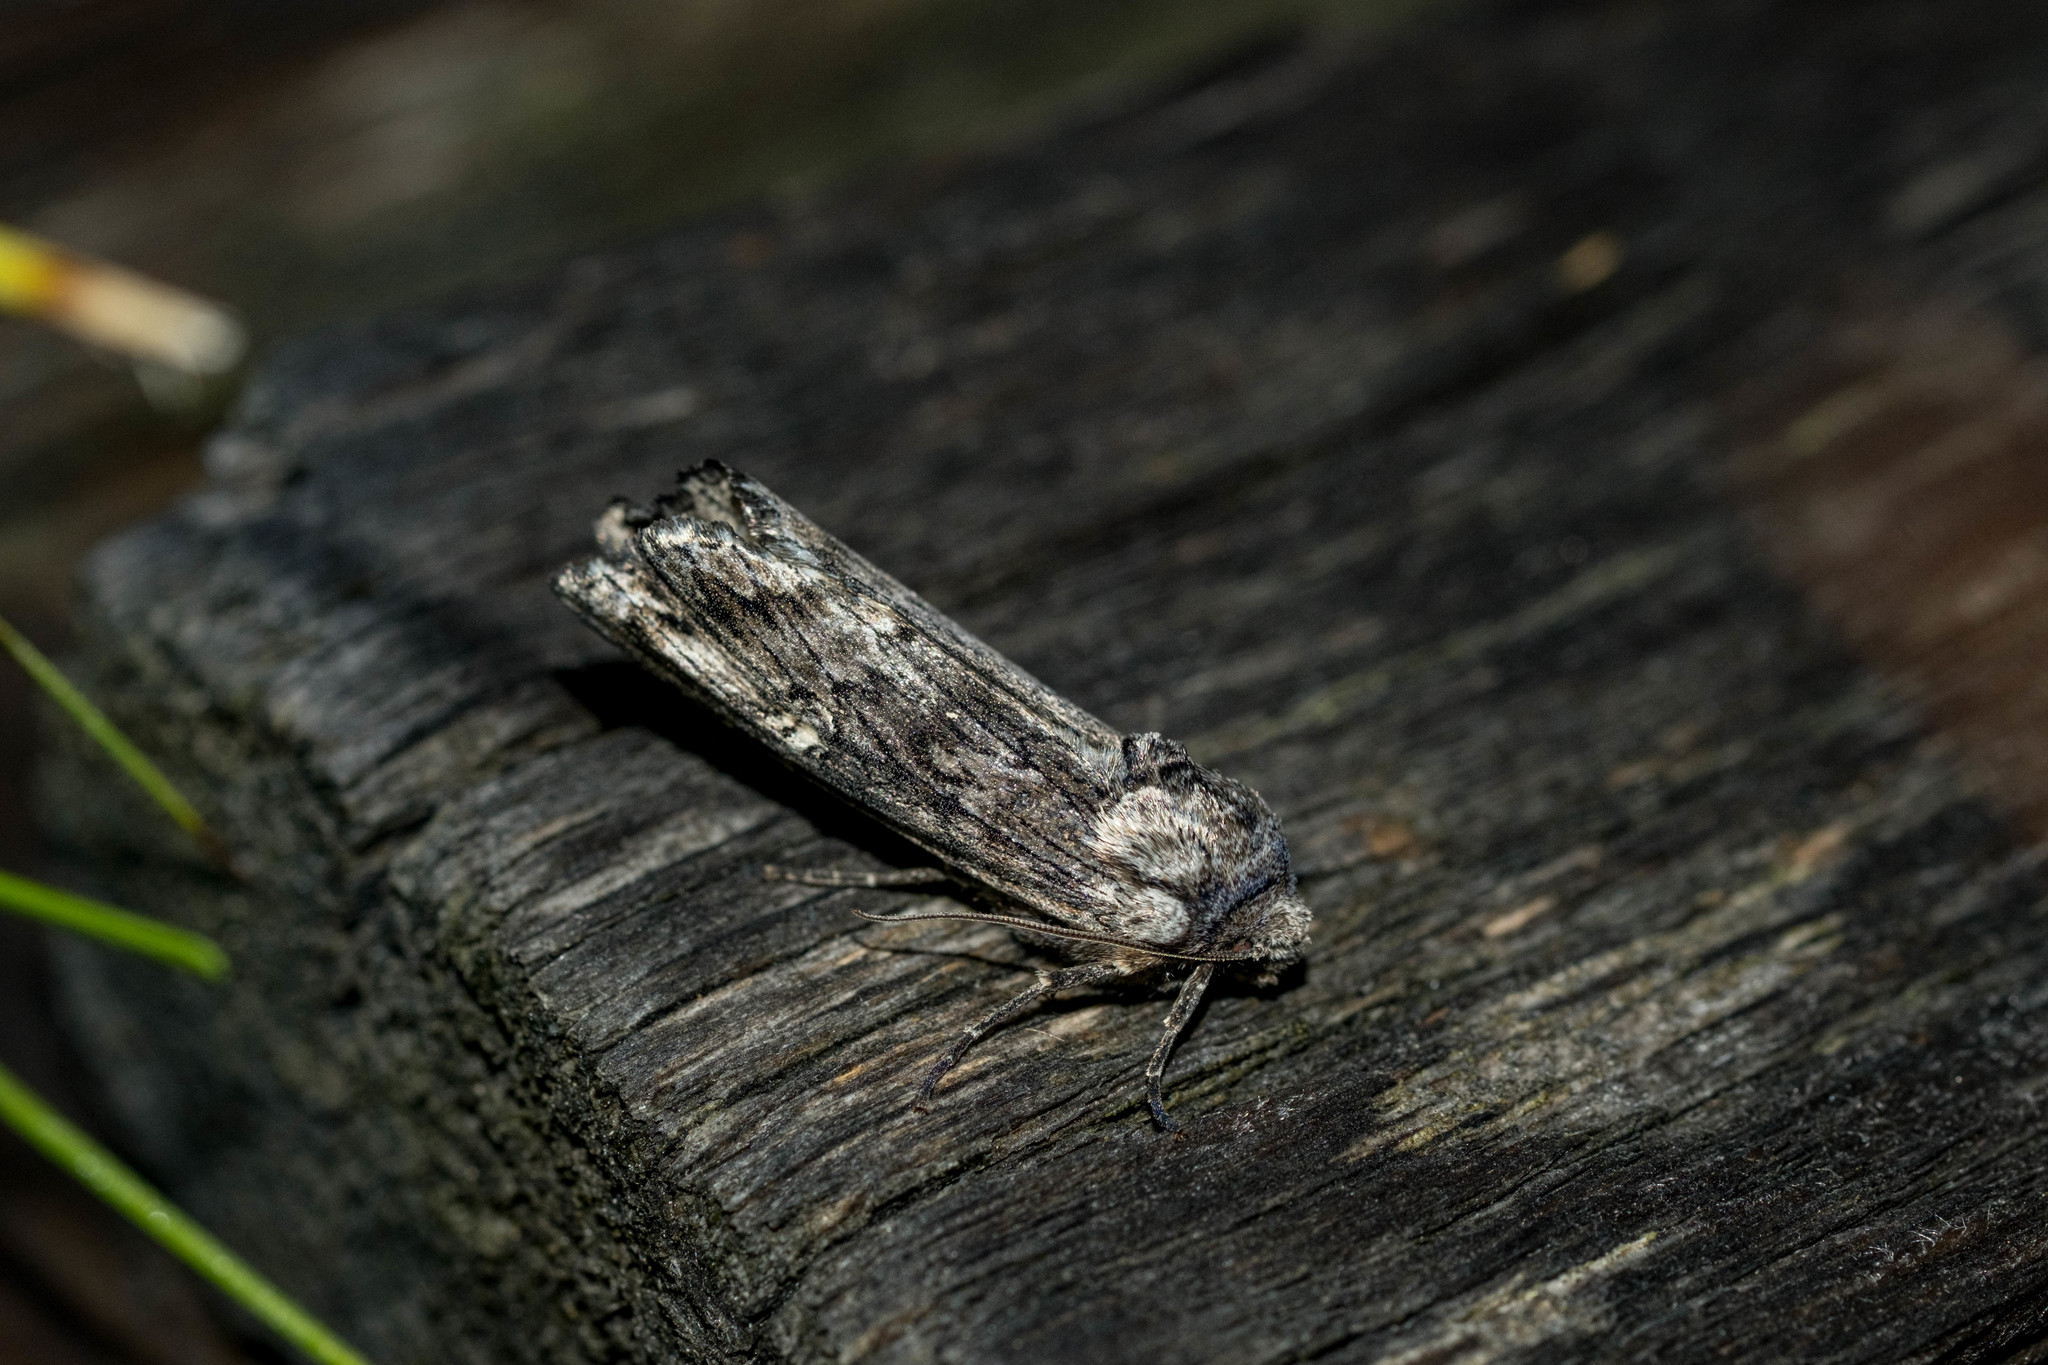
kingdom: Animalia
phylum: Arthropoda
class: Insecta
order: Lepidoptera
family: Noctuidae
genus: Xylena
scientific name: Xylena solidaginis
